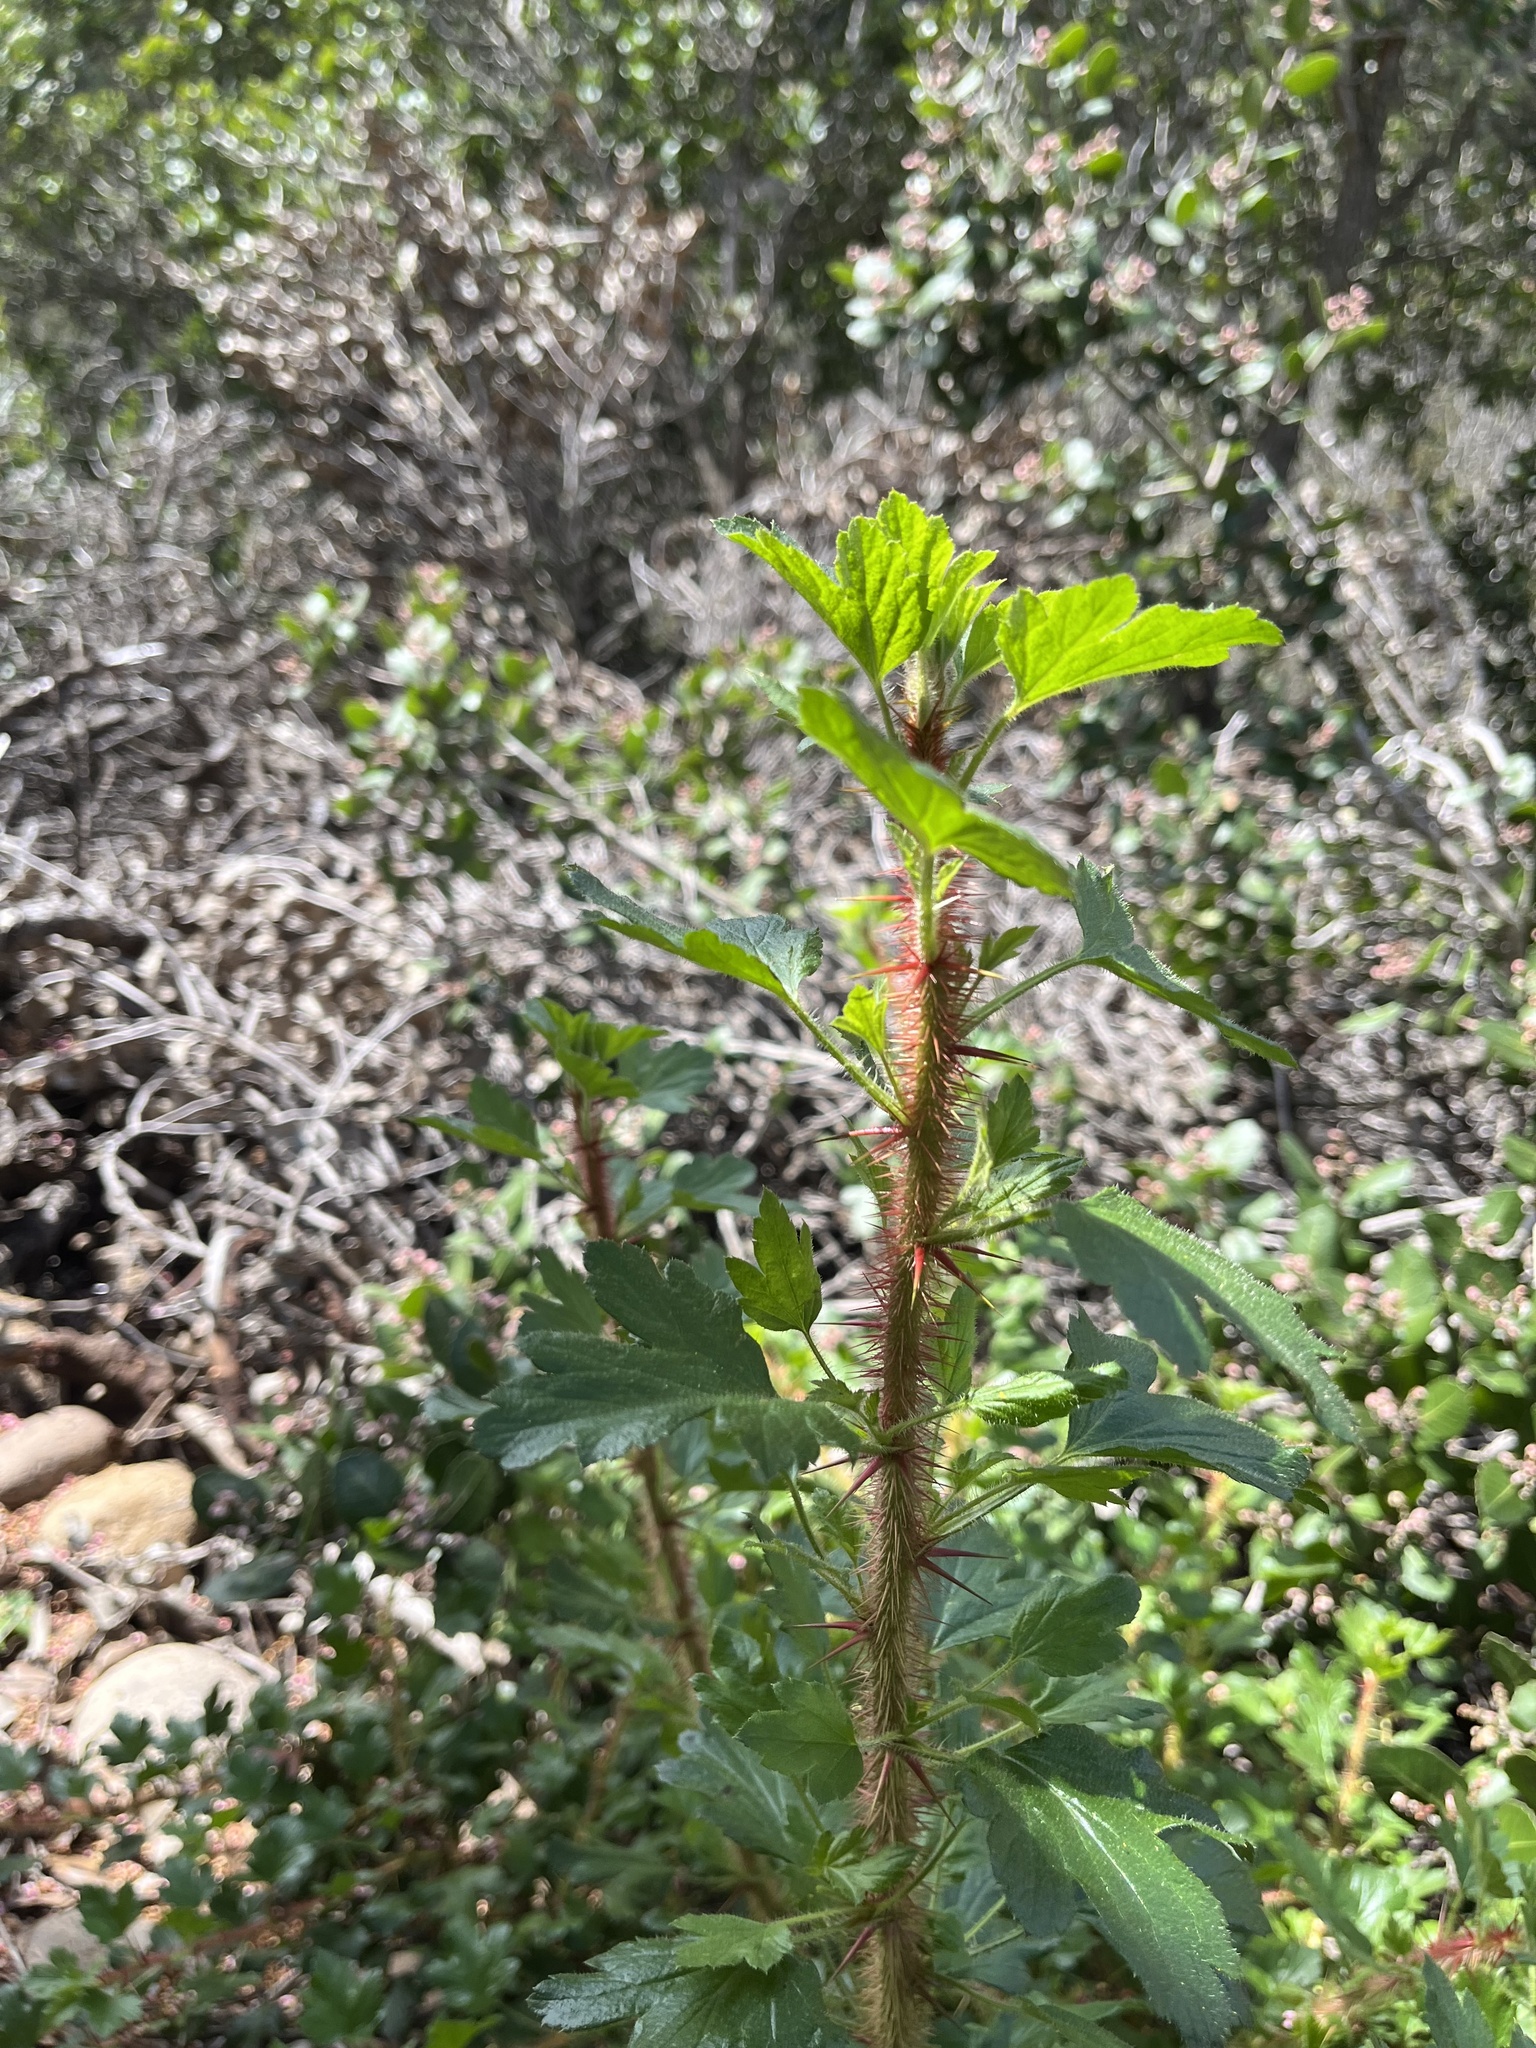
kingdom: Plantae
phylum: Tracheophyta
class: Magnoliopsida
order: Saxifragales
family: Grossulariaceae
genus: Ribes
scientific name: Ribes speciosum
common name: Fuchsia-flower gooseberry
